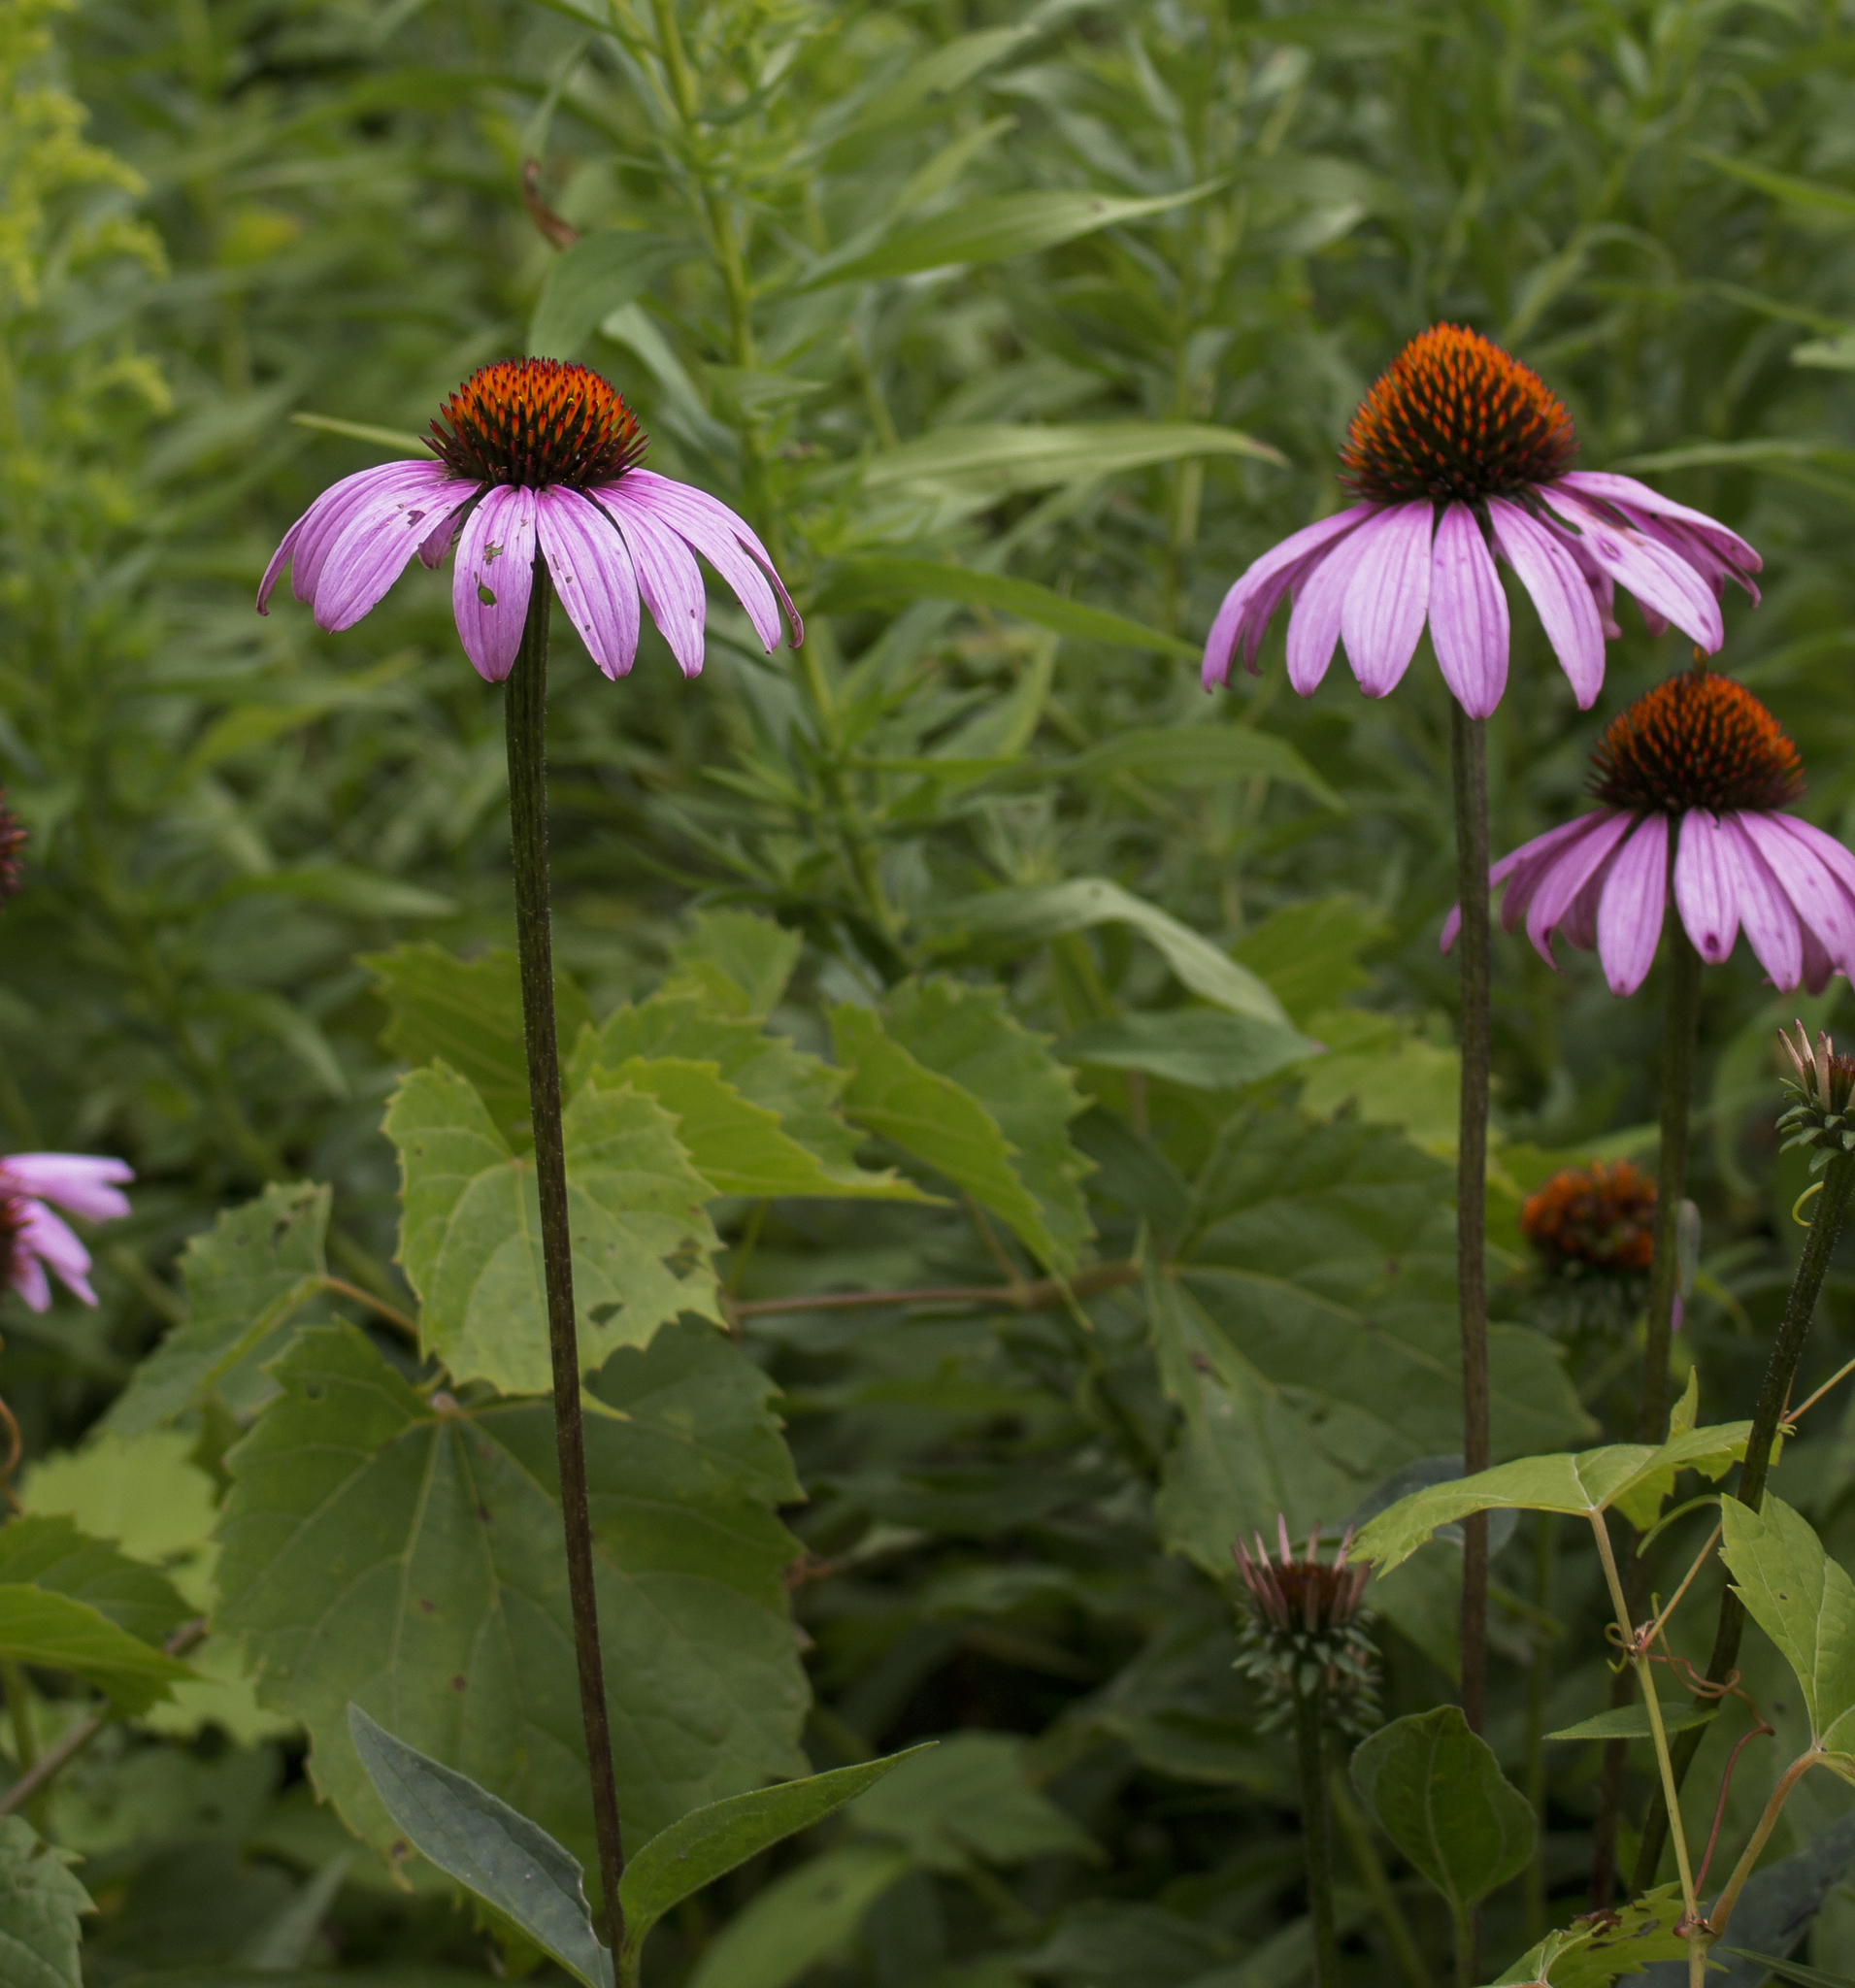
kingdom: Plantae
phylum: Tracheophyta
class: Magnoliopsida
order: Asterales
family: Asteraceae
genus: Echinacea
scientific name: Echinacea purpurea
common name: Broad-leaved purple coneflower
